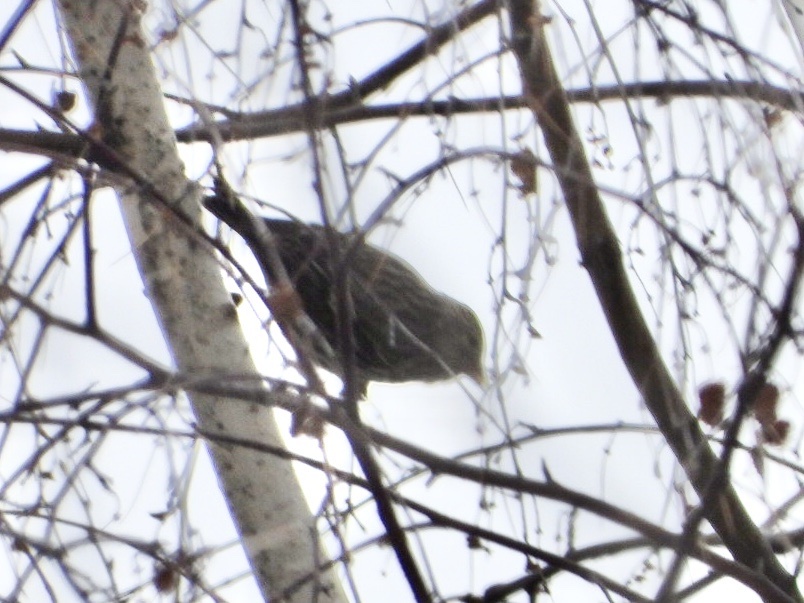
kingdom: Animalia
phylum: Chordata
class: Aves
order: Passeriformes
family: Fringillidae
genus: Spinus
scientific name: Spinus pinus
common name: Pine siskin
